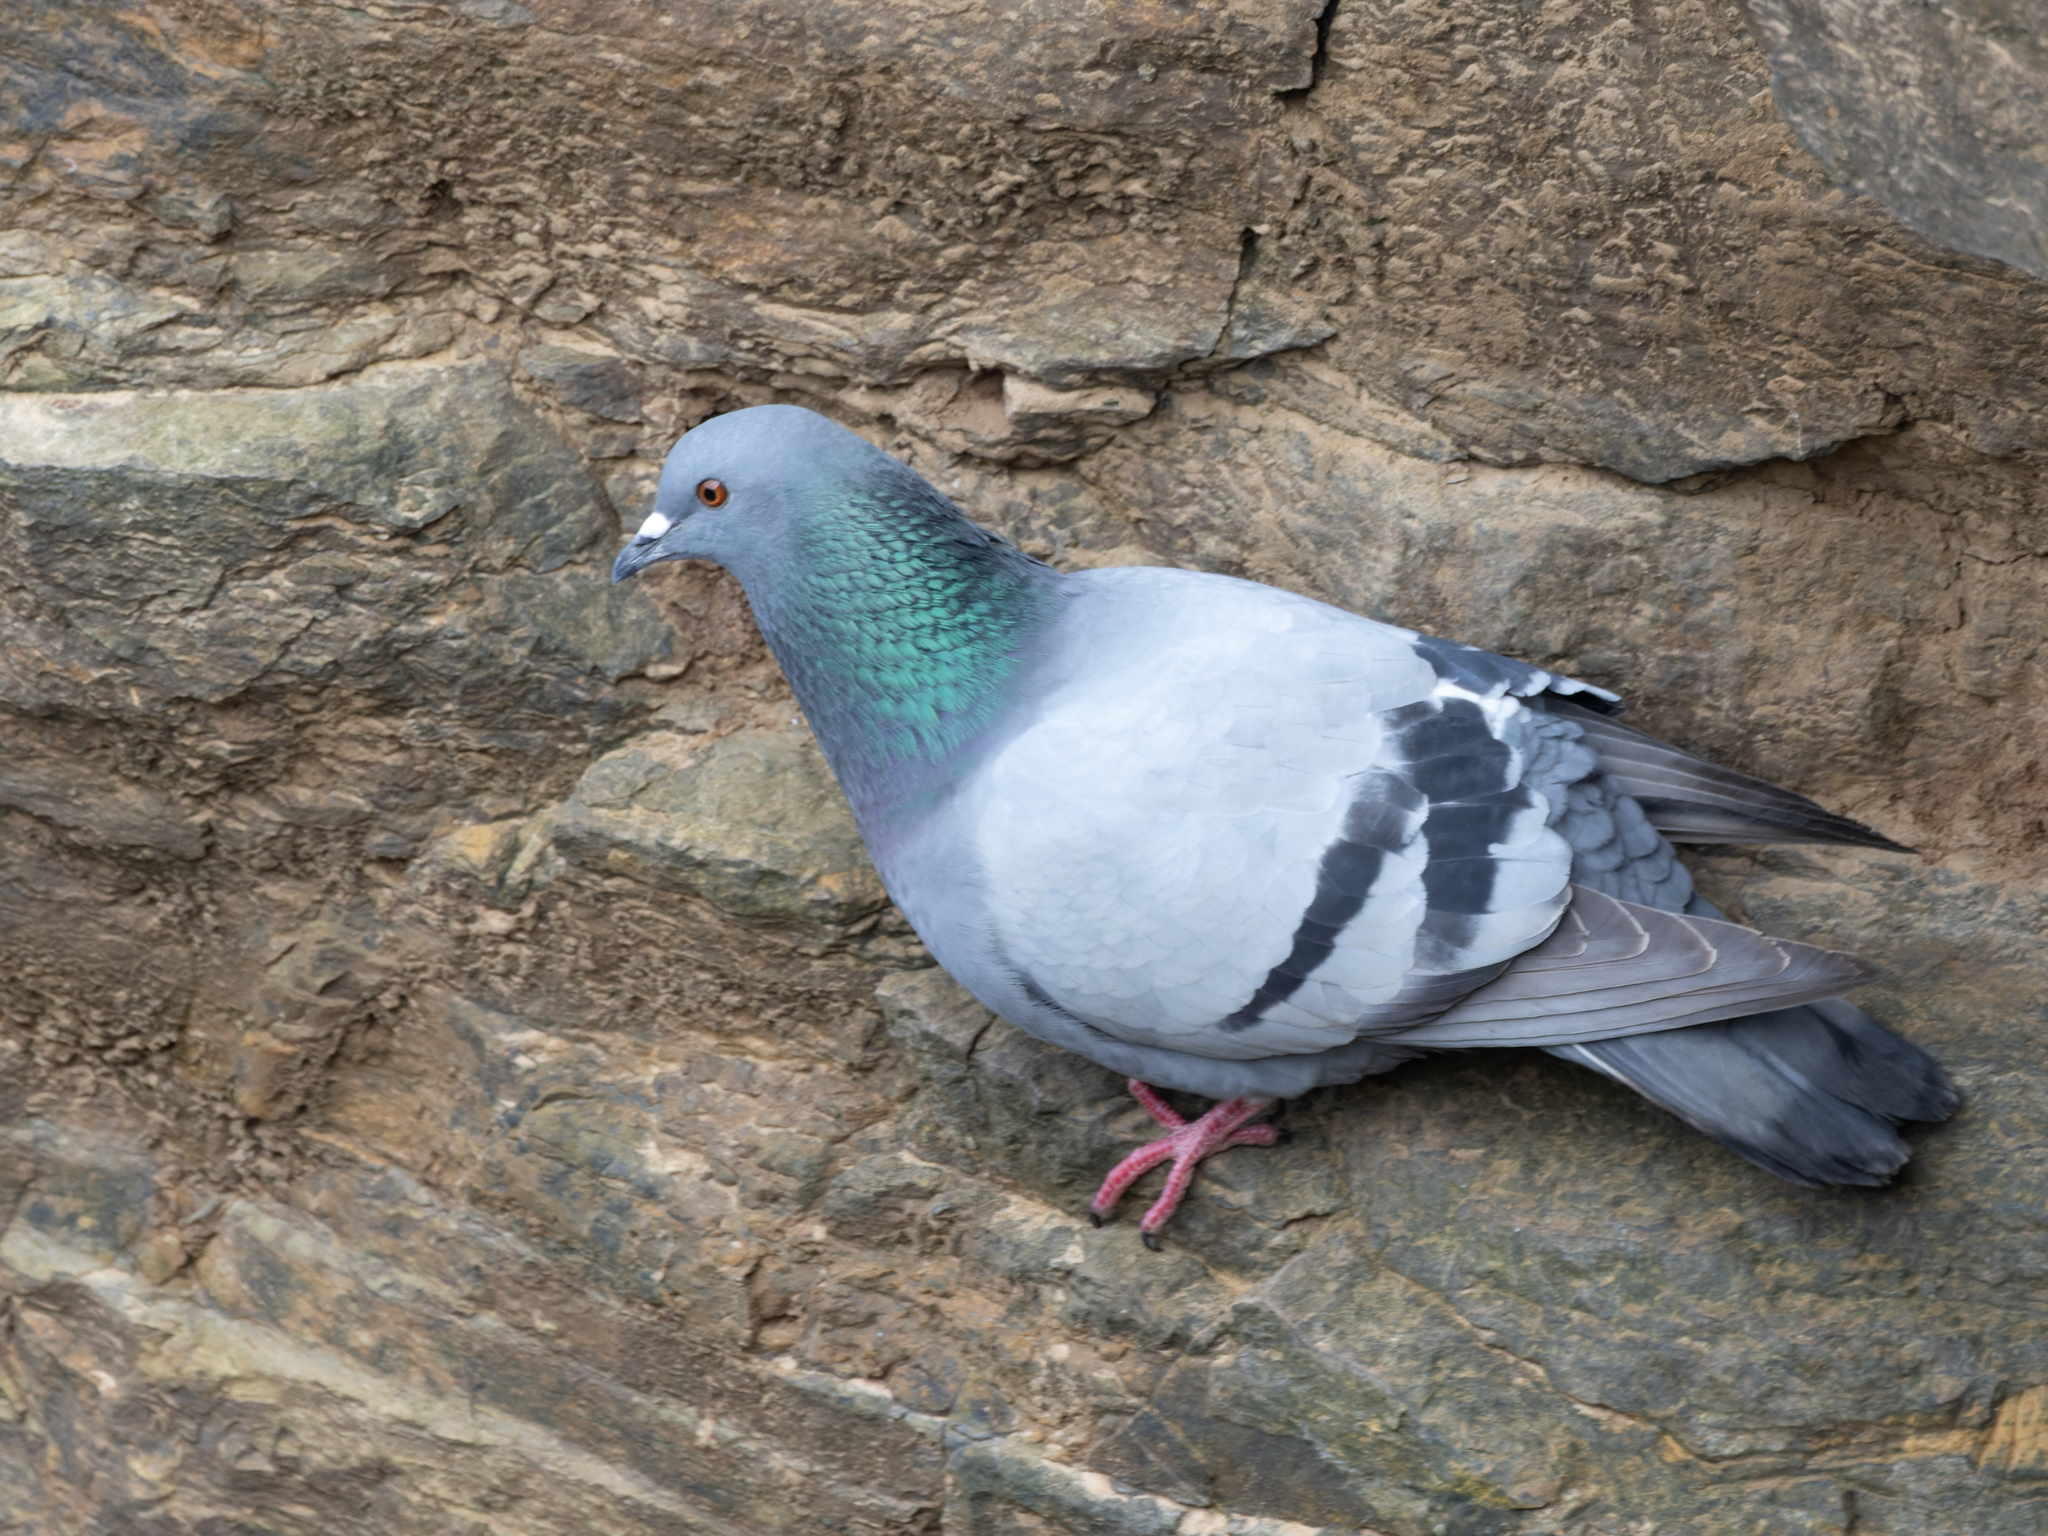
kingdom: Animalia
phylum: Chordata
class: Aves
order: Columbiformes
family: Columbidae
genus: Columba
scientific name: Columba livia
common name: Rock pigeon
